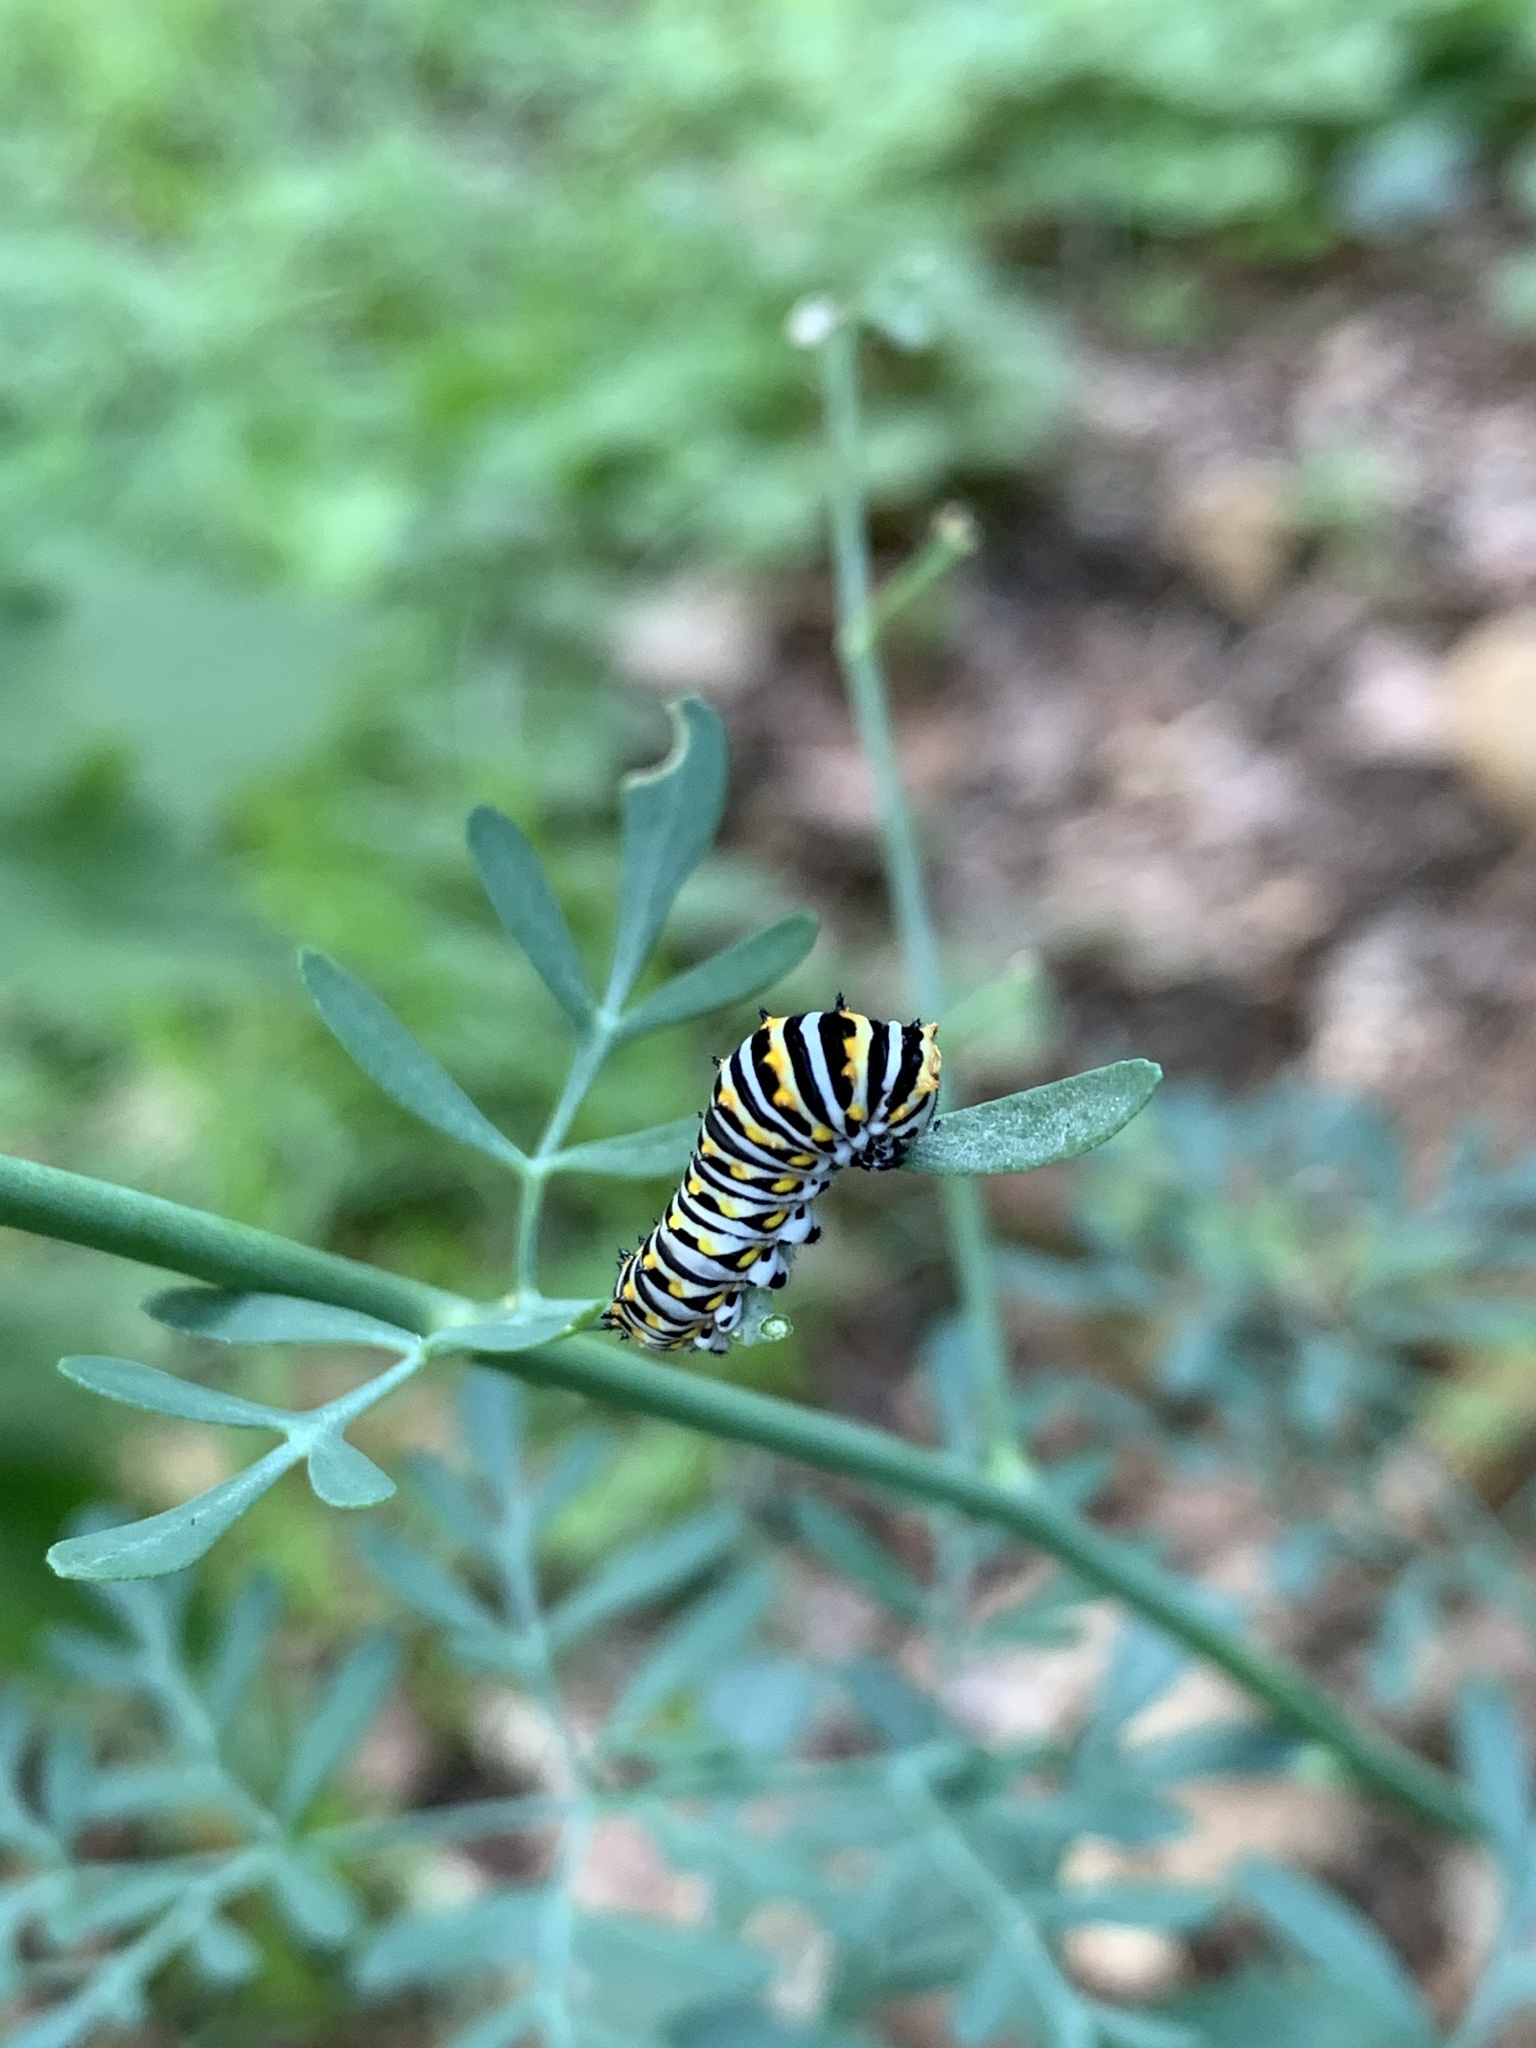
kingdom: Animalia
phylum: Arthropoda
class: Insecta
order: Lepidoptera
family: Papilionidae
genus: Papilio
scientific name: Papilio polyxenes
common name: Black swallowtail
